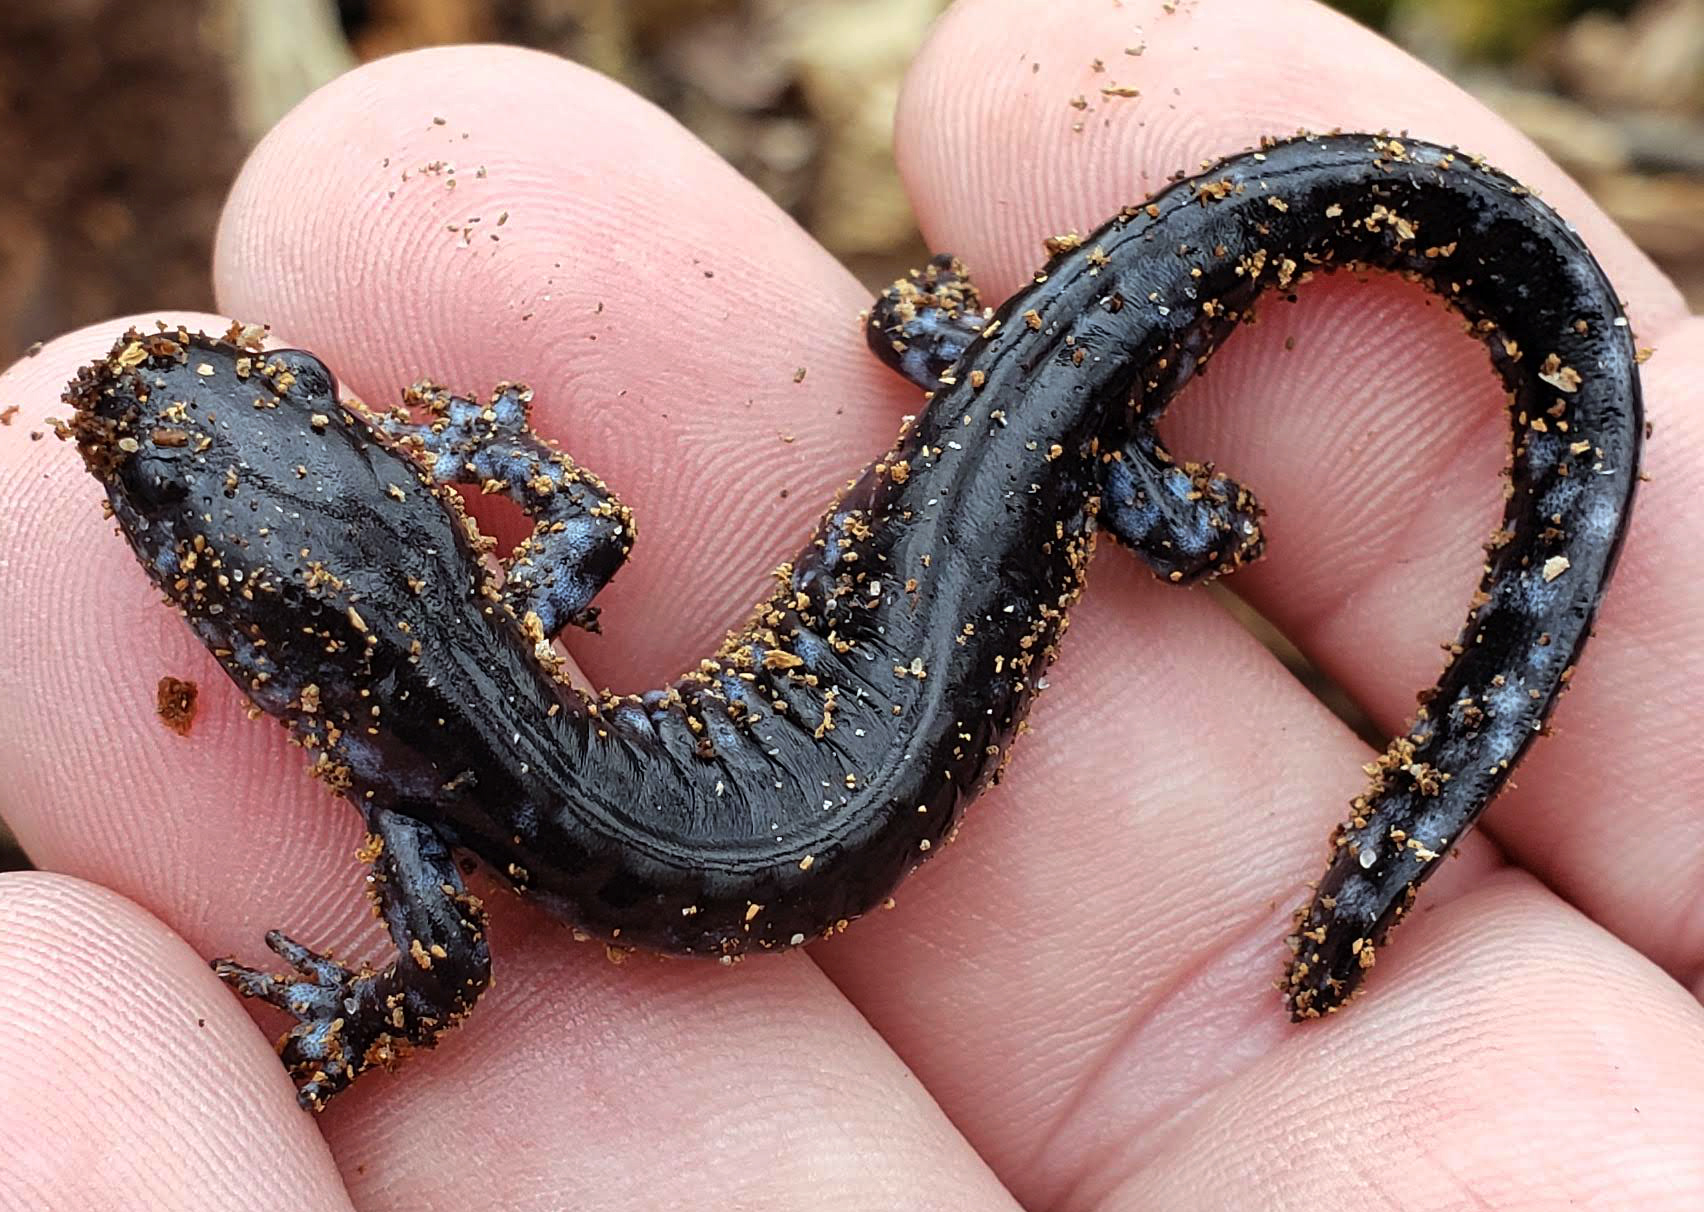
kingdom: Animalia
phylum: Chordata
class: Amphibia
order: Caudata
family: Ambystomatidae
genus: Ambystoma
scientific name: Ambystoma laterale
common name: Blue-spotted salamander
